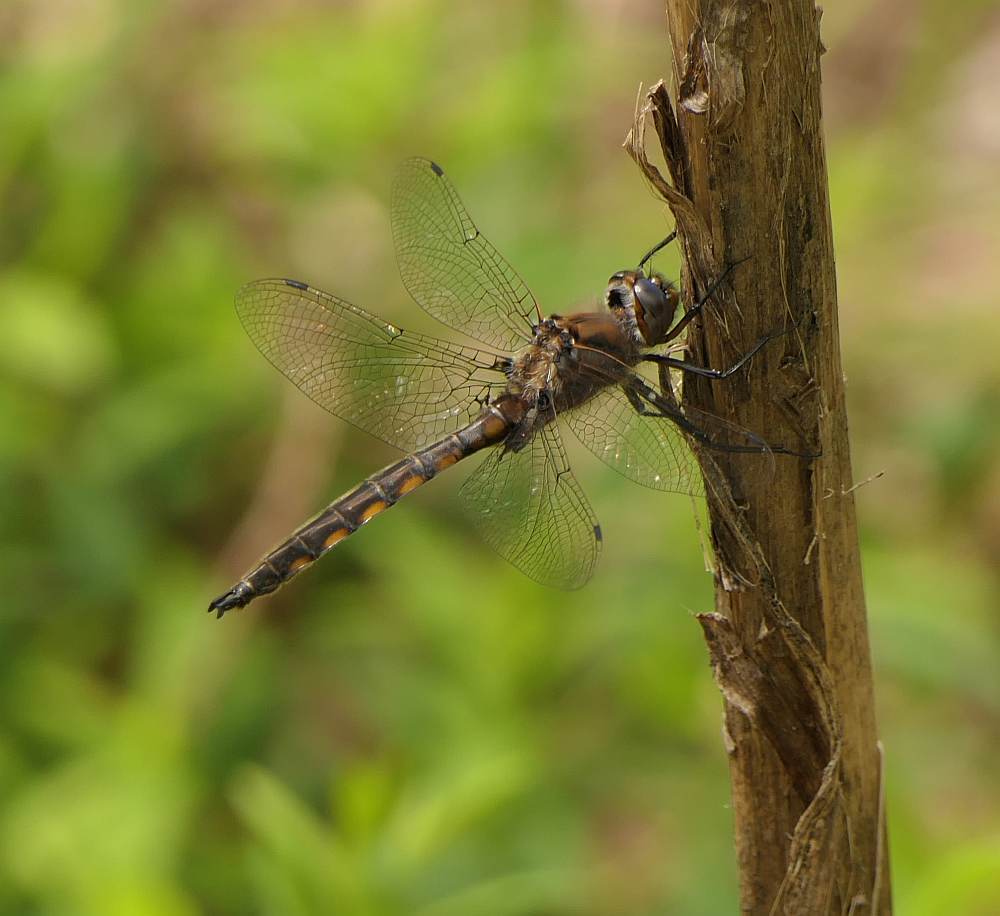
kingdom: Animalia
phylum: Arthropoda
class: Insecta
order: Odonata
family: Corduliidae
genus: Epitheca
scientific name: Epitheca canis
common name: Beaverpond baskettail
